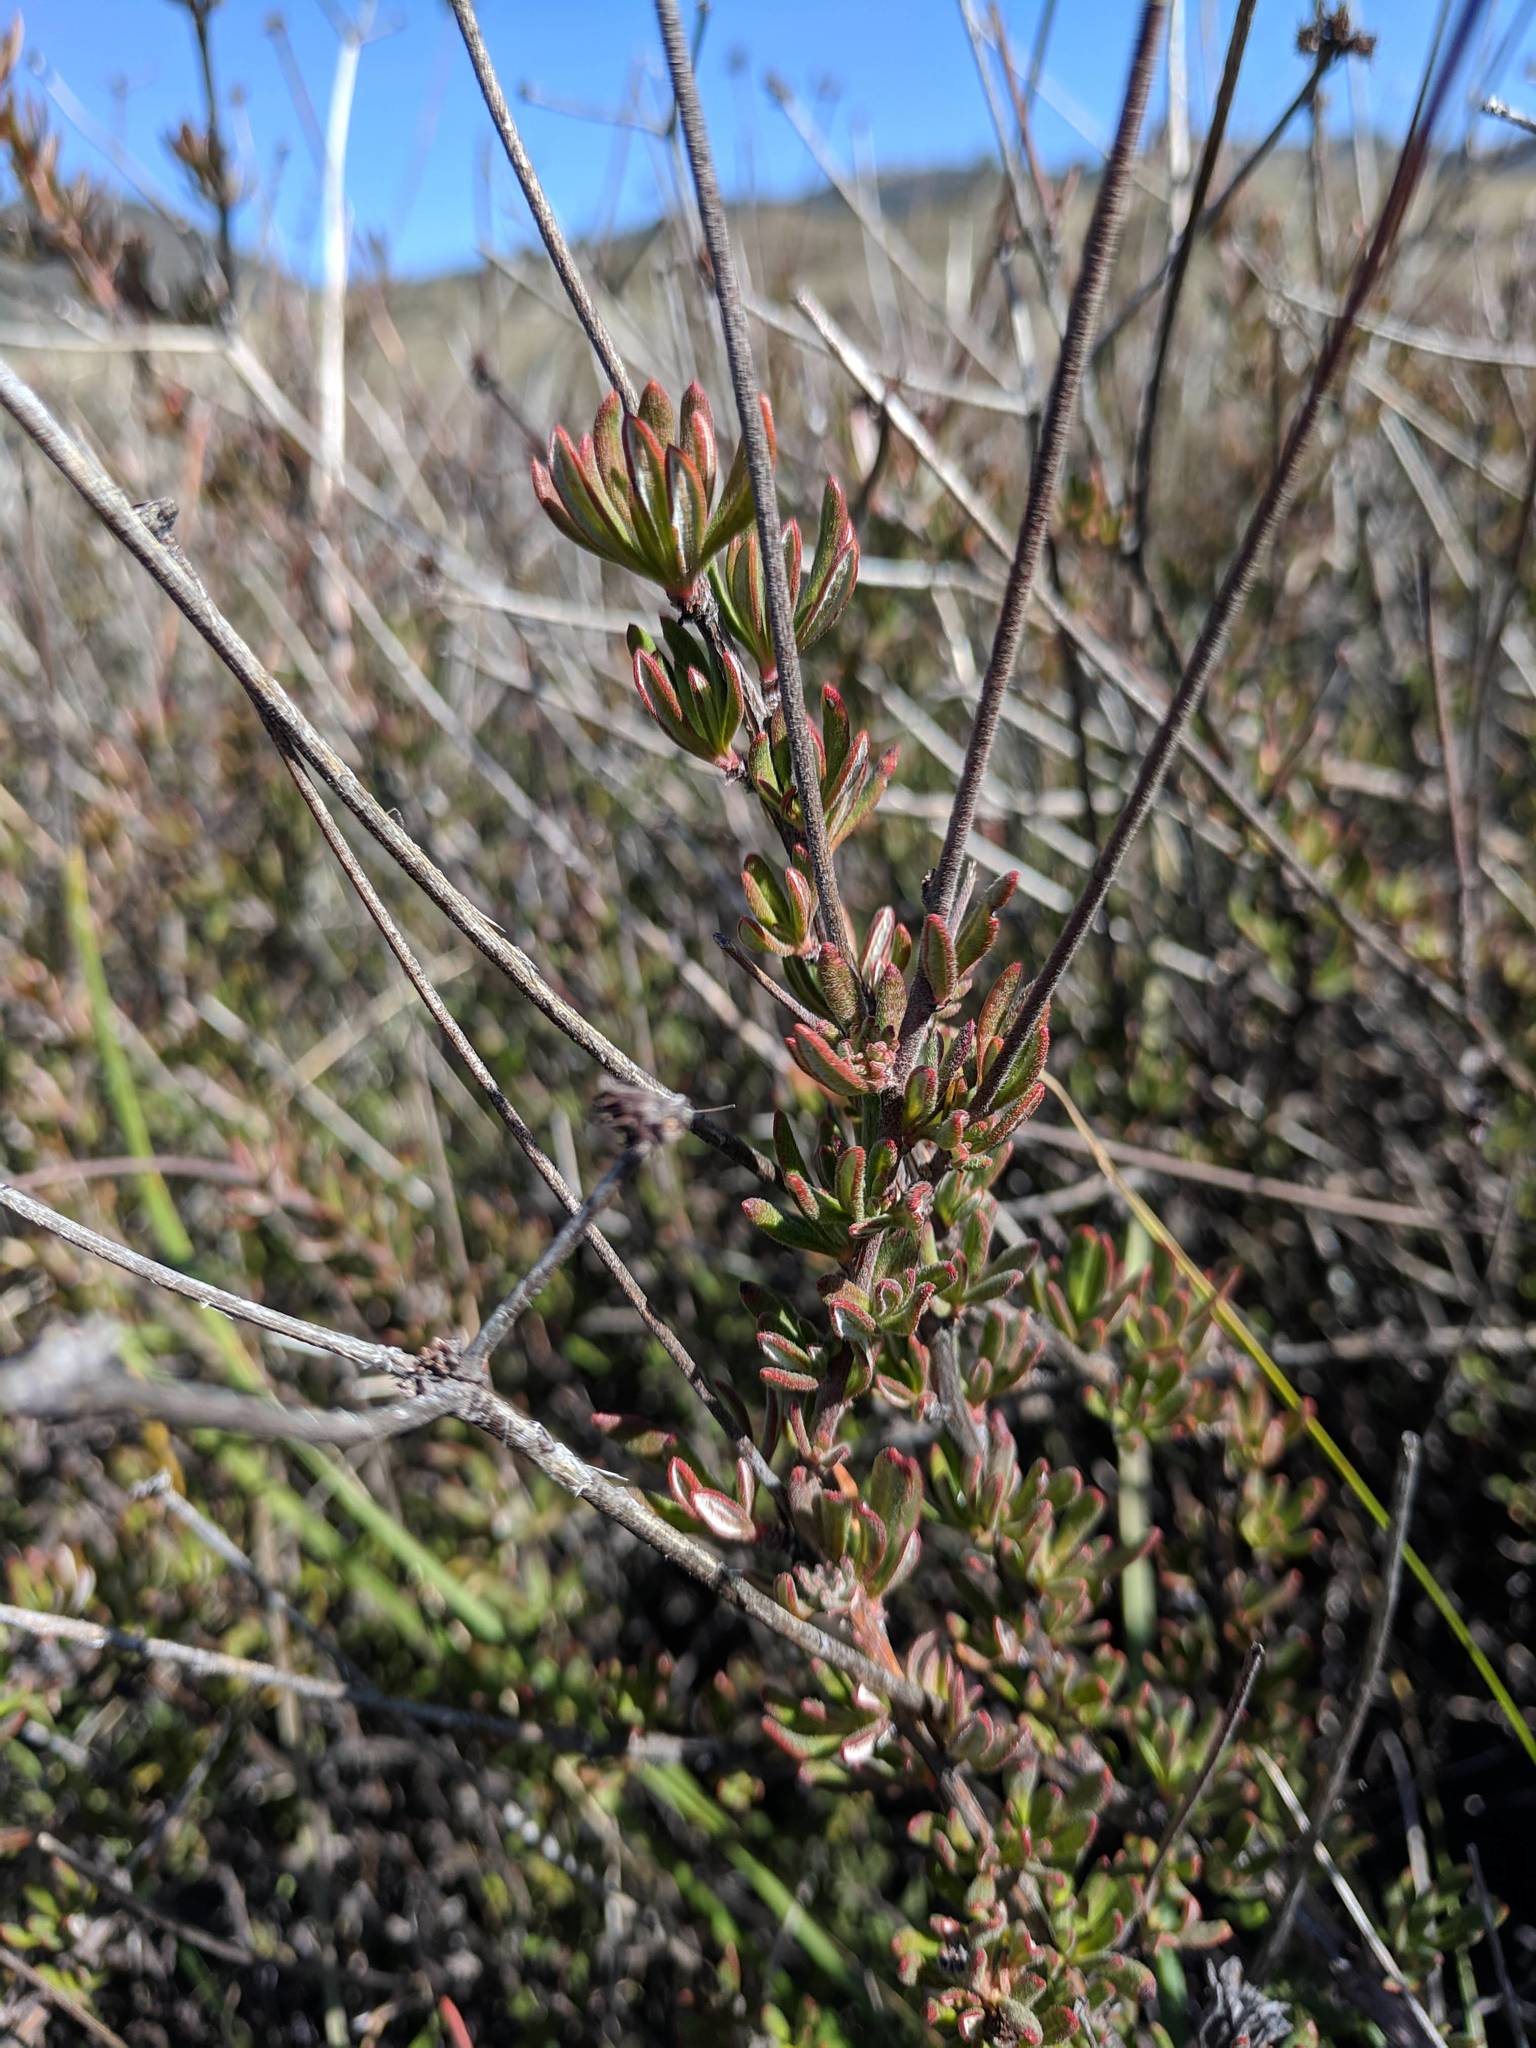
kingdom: Plantae
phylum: Tracheophyta
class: Magnoliopsida
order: Caryophyllales
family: Polygonaceae
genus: Eriogonum
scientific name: Eriogonum fasciculatum
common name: California wild buckwheat
